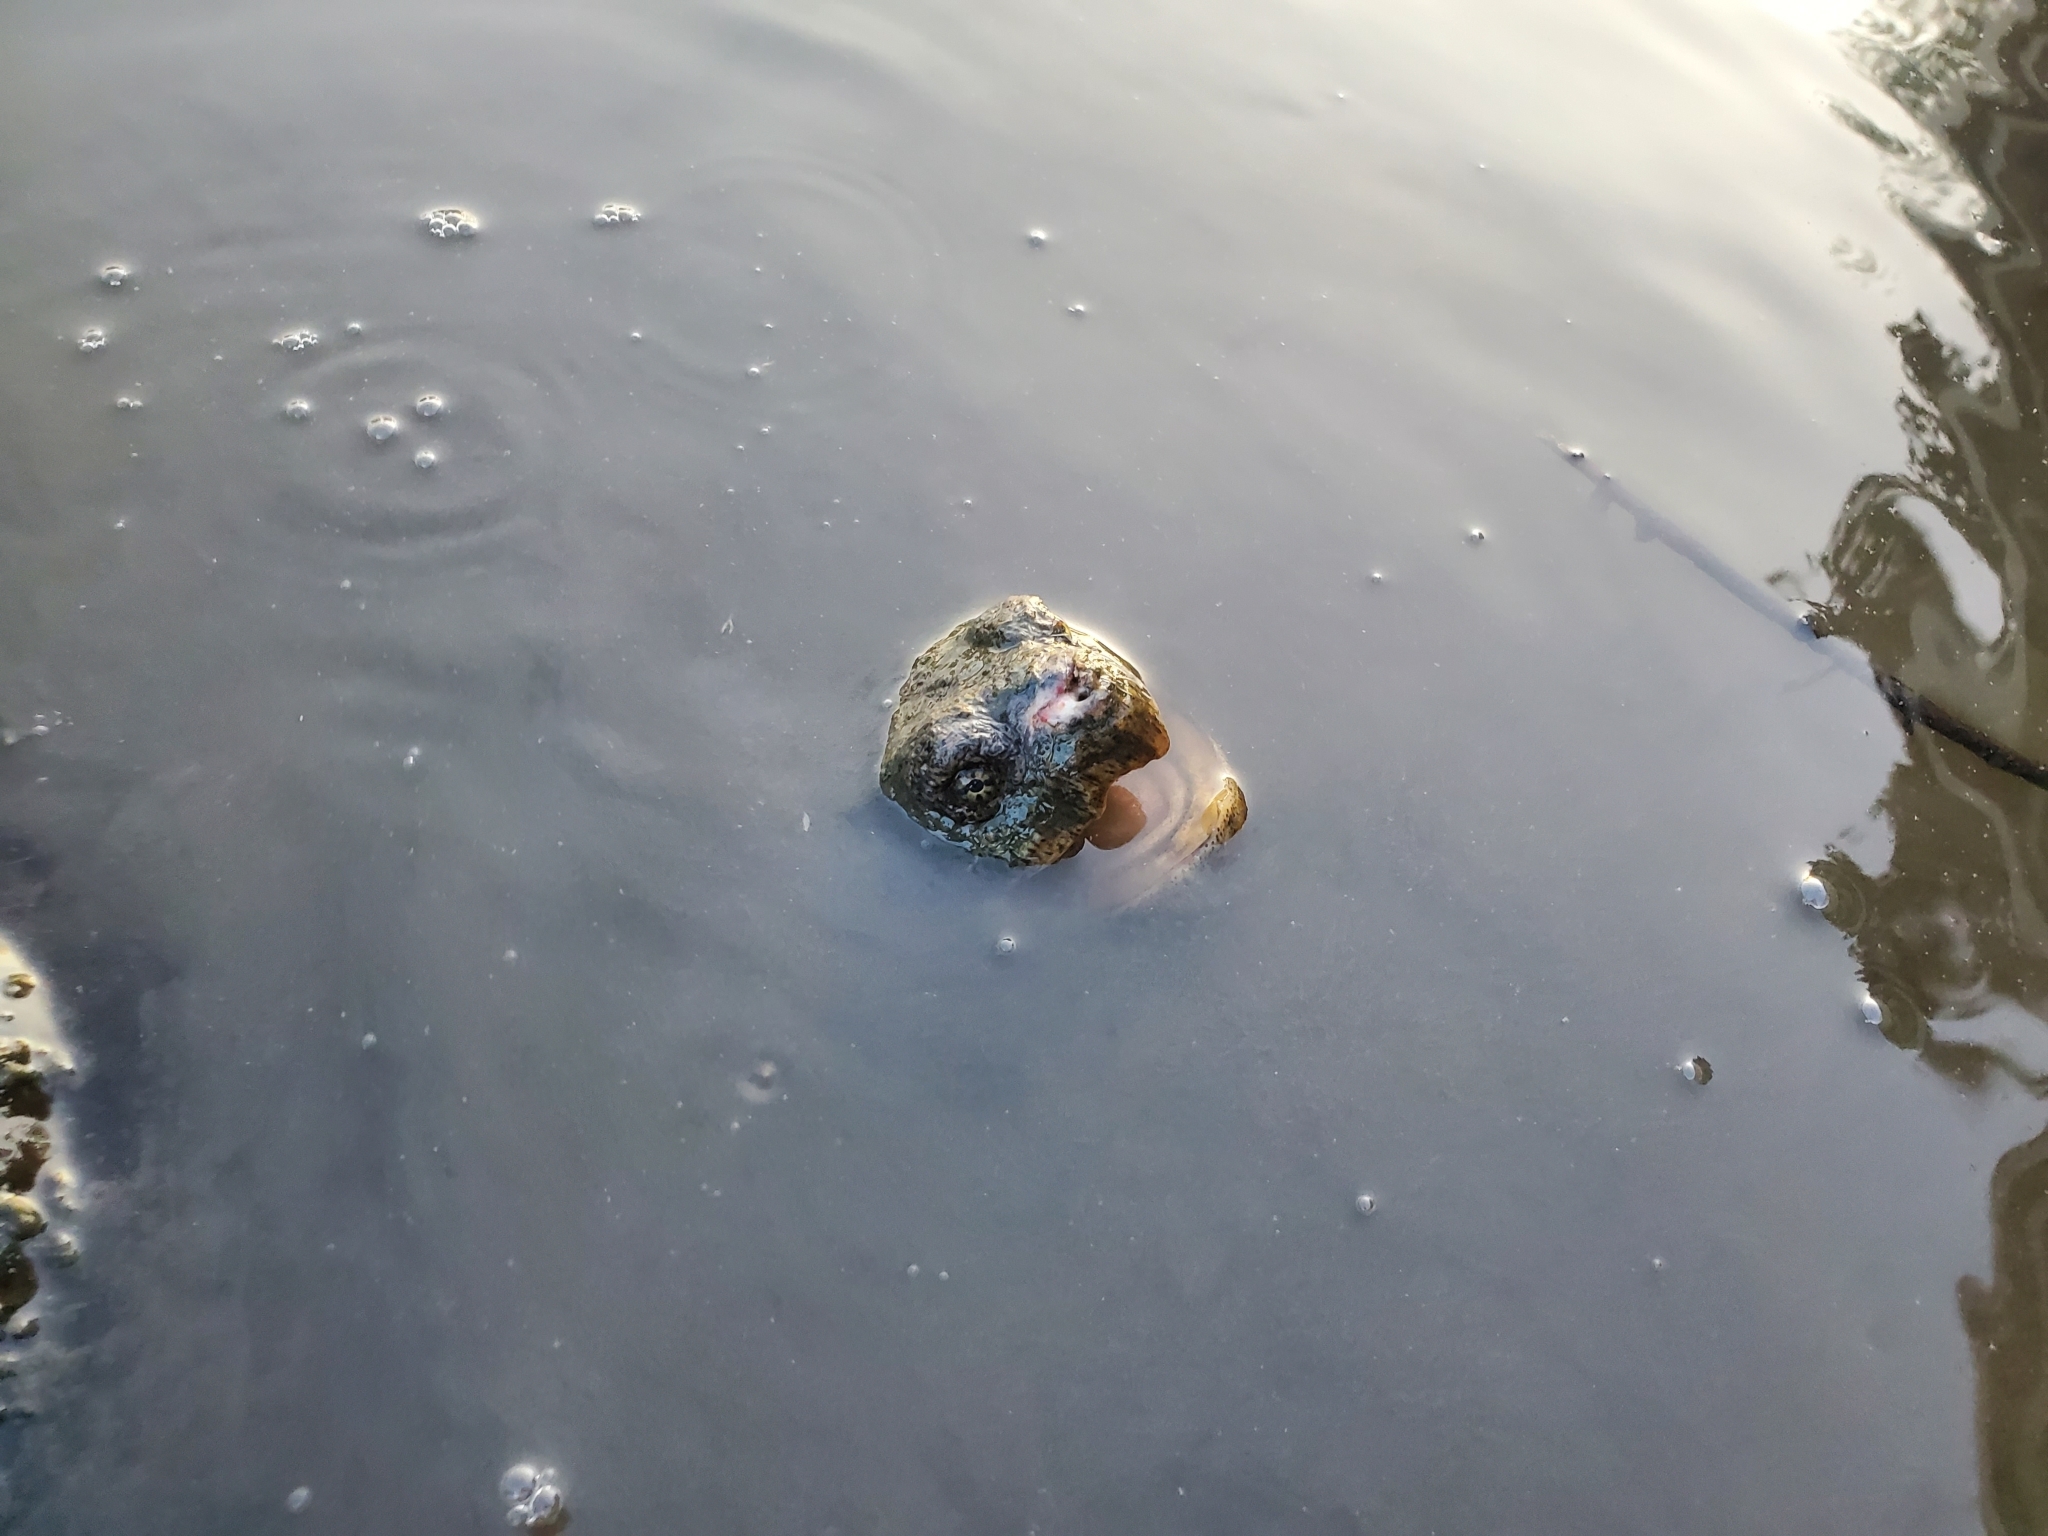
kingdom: Animalia
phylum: Chordata
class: Testudines
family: Chelydridae
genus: Chelydra
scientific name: Chelydra serpentina
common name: Common snapping turtle
